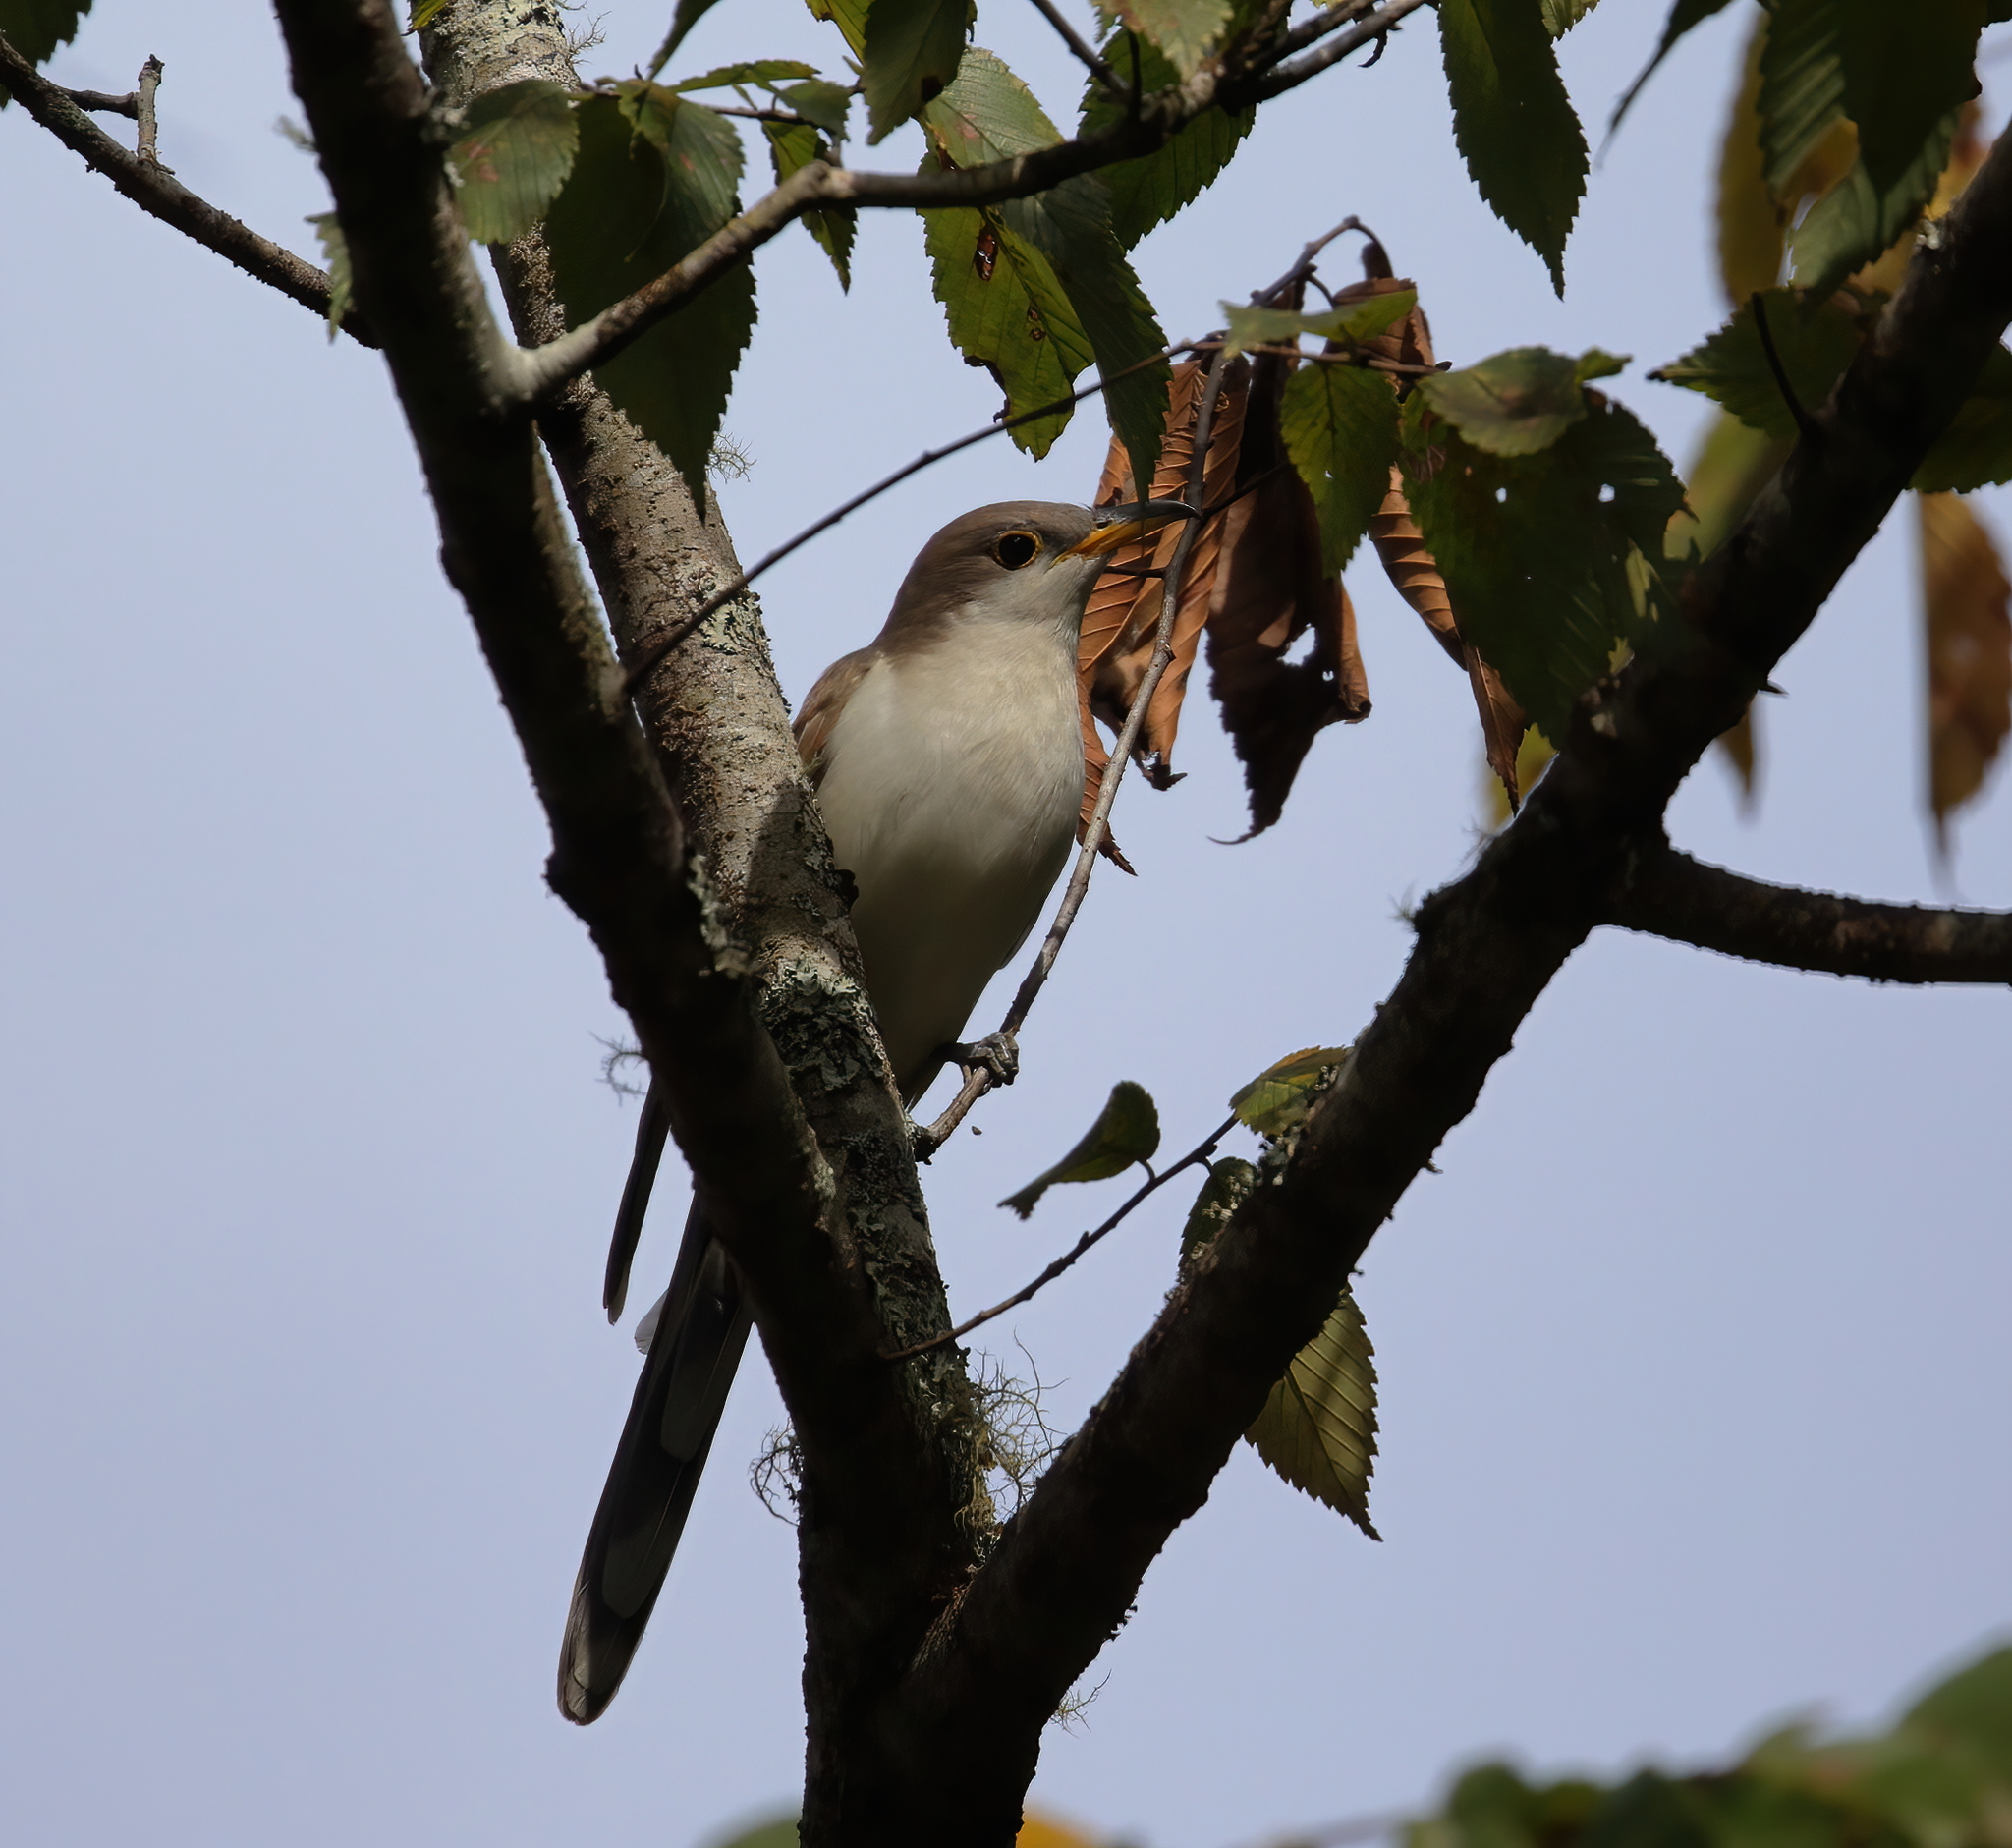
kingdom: Animalia
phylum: Chordata
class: Aves
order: Cuculiformes
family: Cuculidae
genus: Coccyzus
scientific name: Coccyzus americanus
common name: Yellow-billed cuckoo
